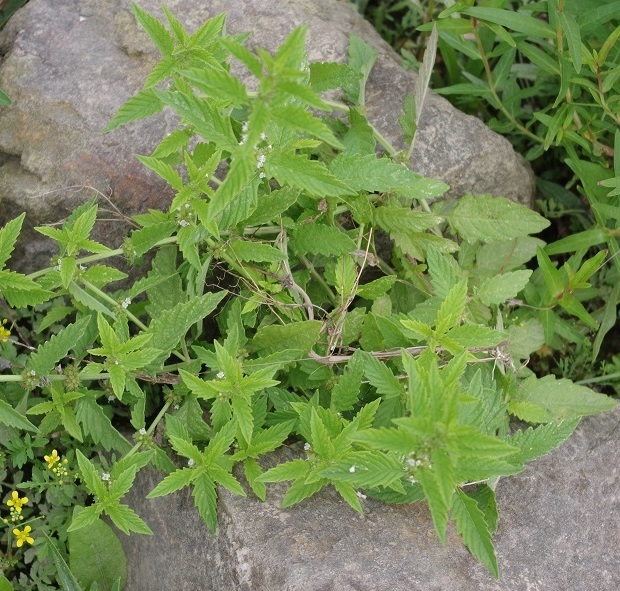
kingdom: Plantae
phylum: Tracheophyta
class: Magnoliopsida
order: Lamiales
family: Lamiaceae
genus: Lycopus
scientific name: Lycopus europaeus
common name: European bugleweed
